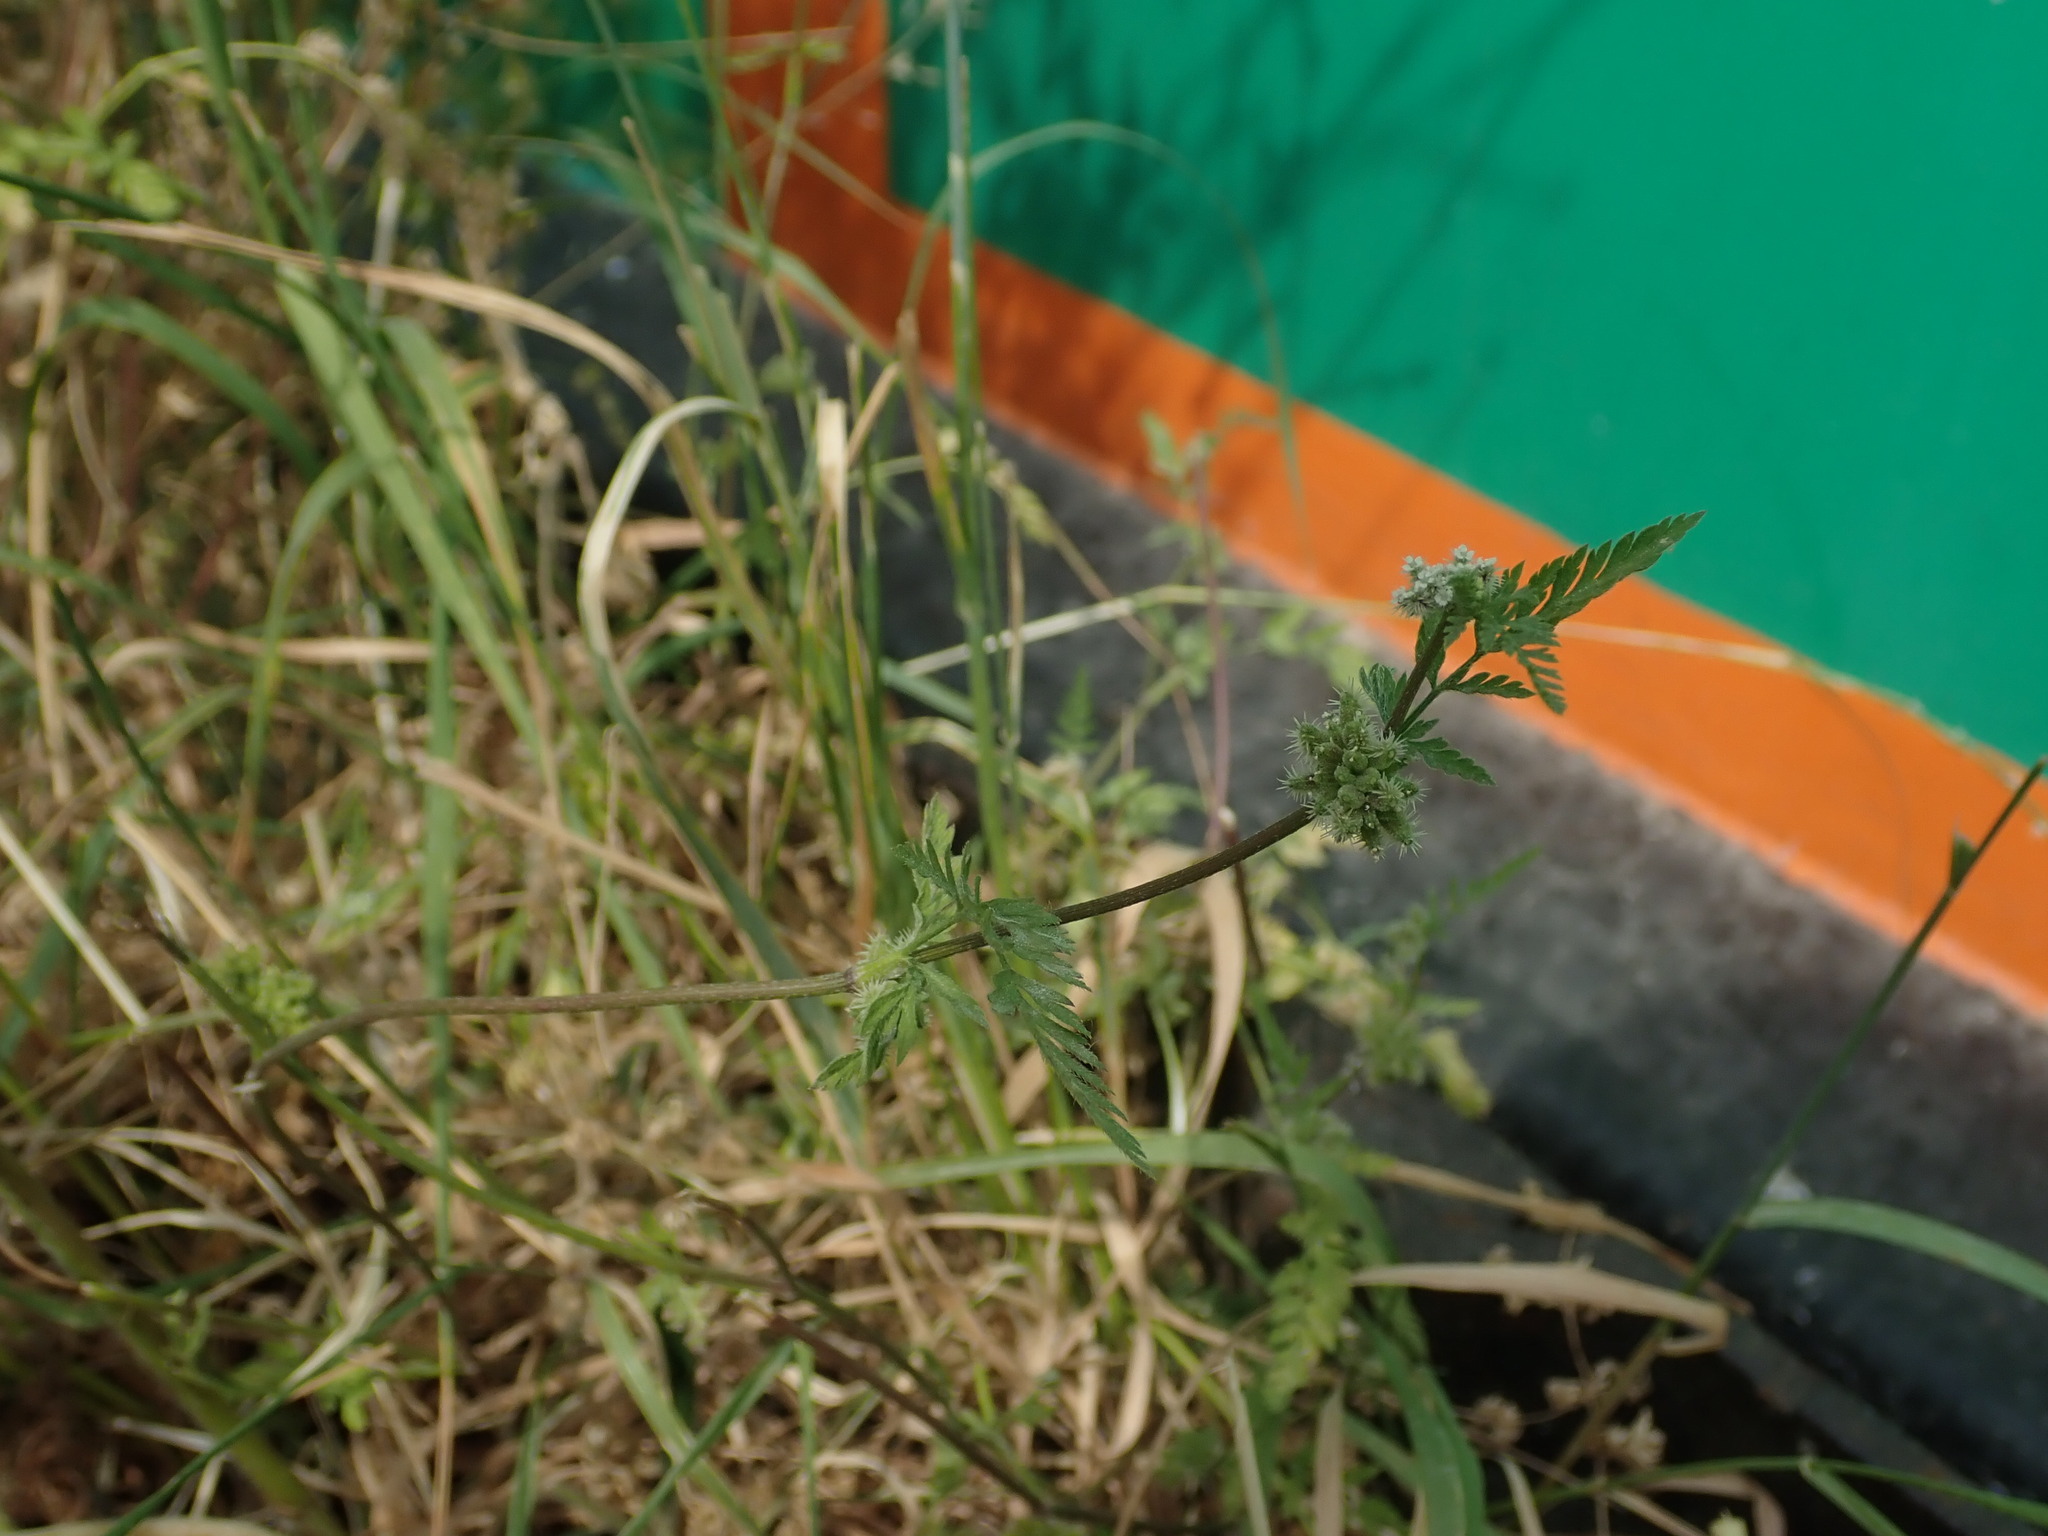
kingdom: Plantae
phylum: Tracheophyta
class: Magnoliopsida
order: Apiales
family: Apiaceae
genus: Torilis
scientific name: Torilis nodosa
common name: Knotted hedge-parsley
